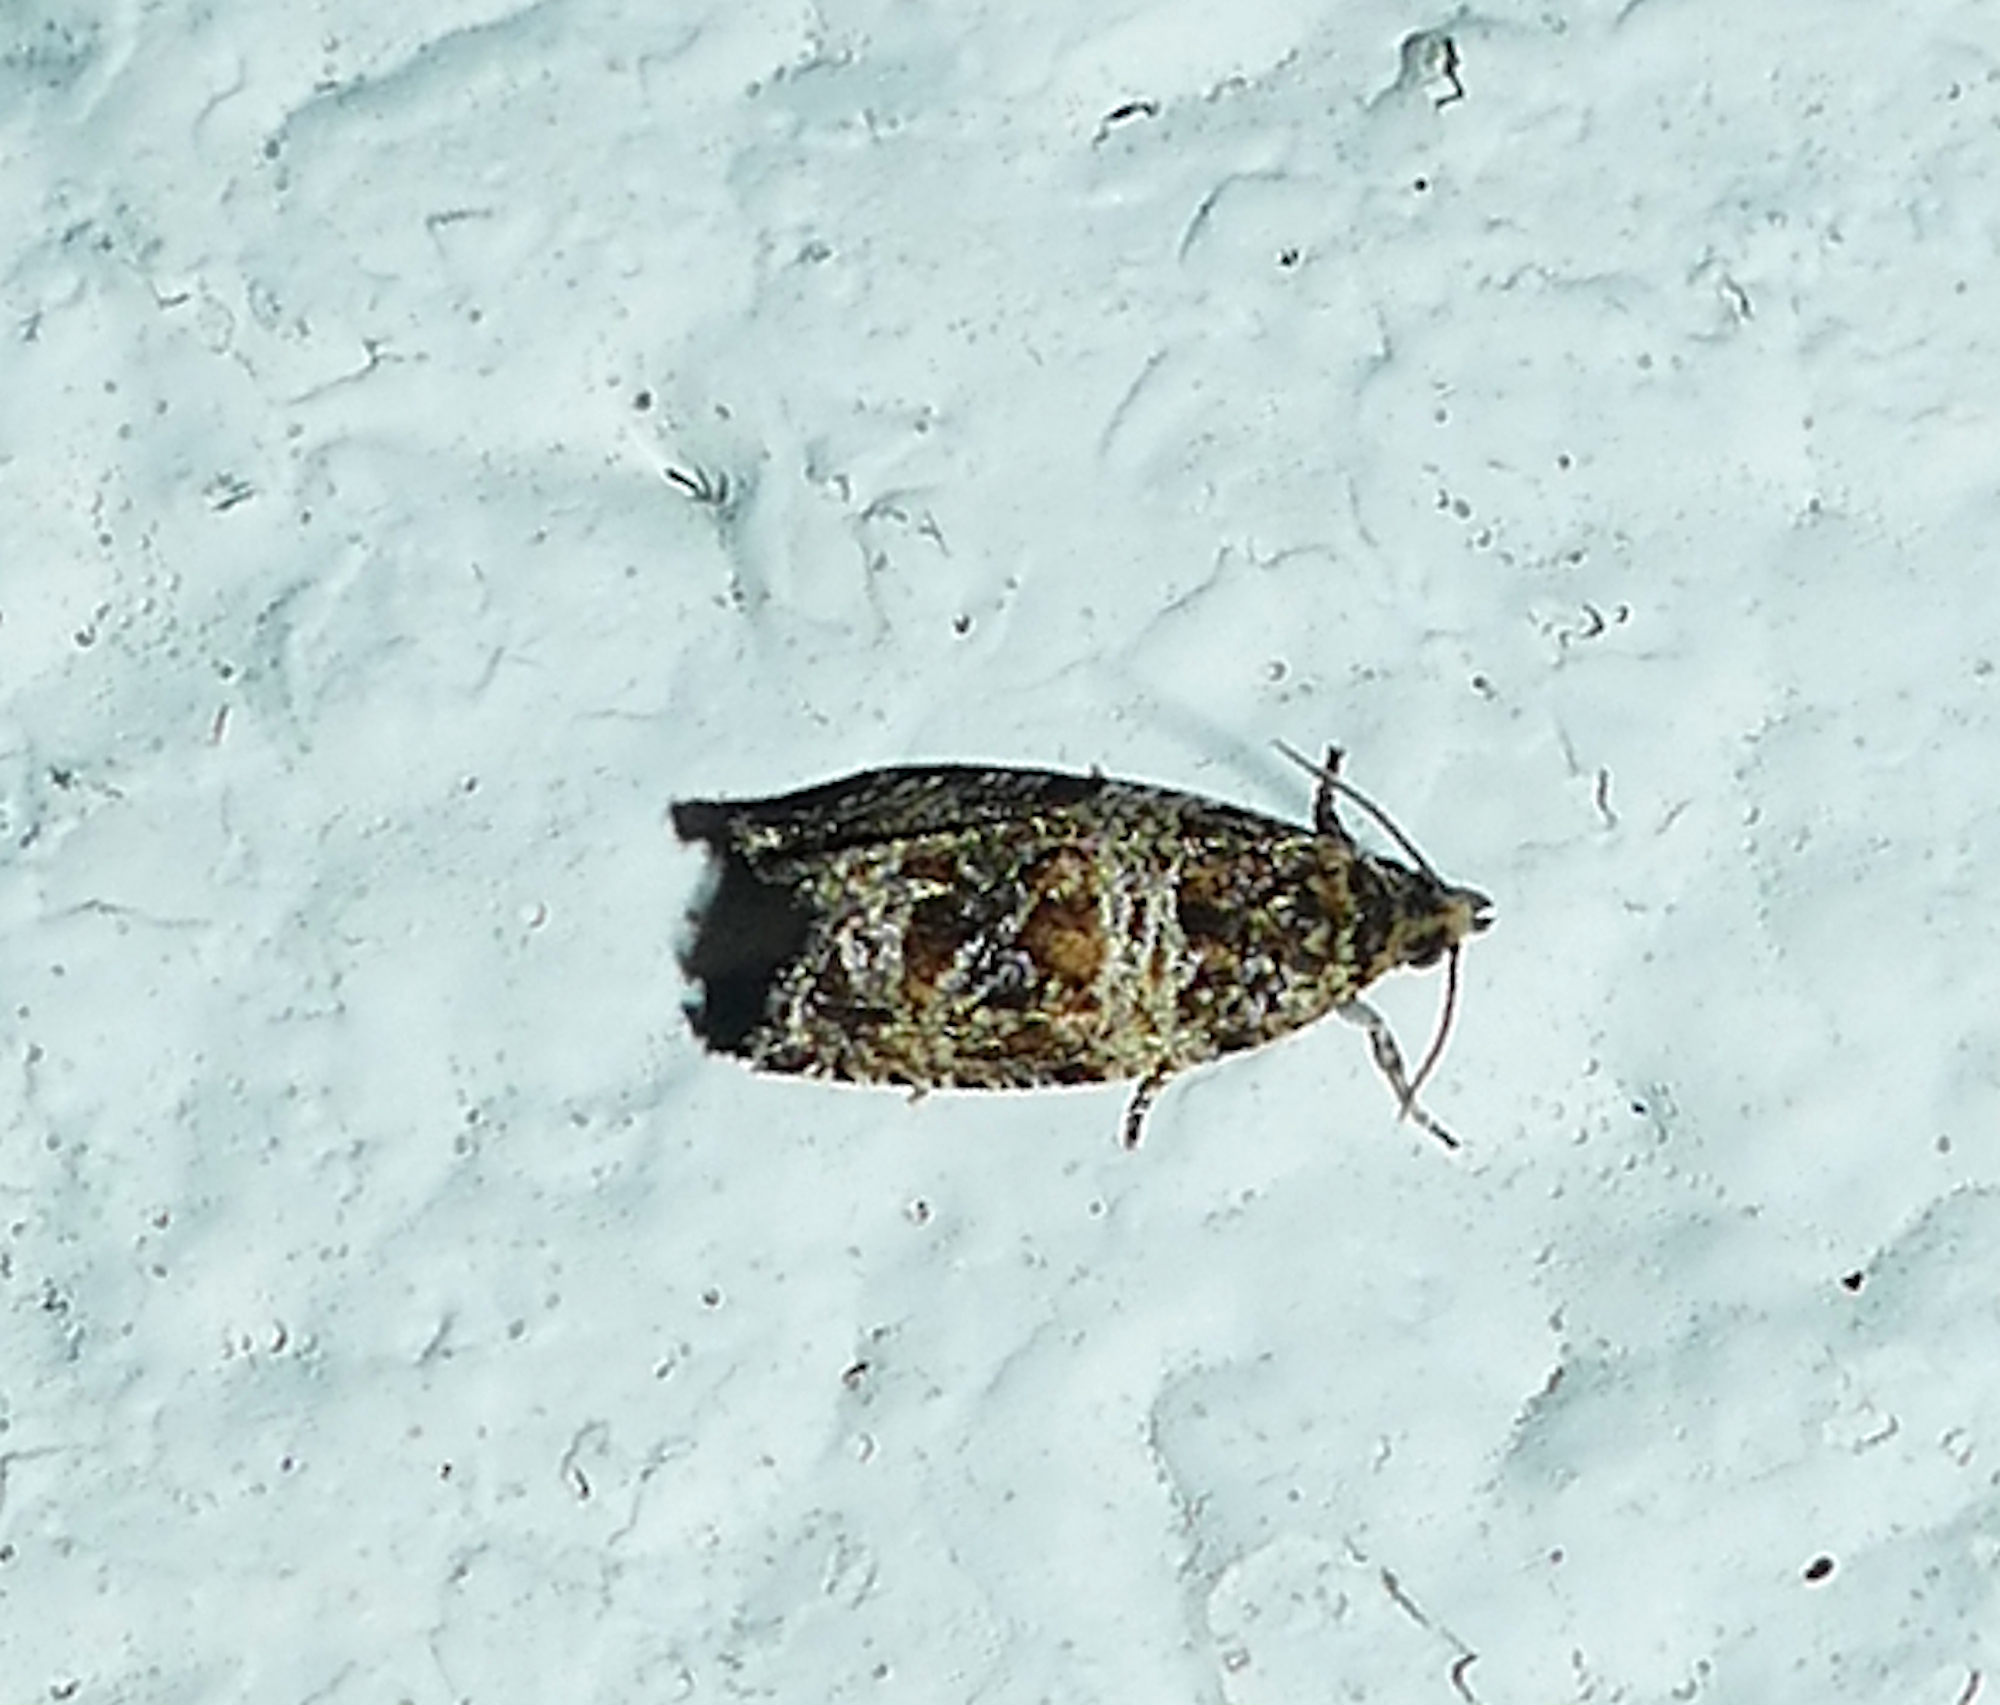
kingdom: Animalia
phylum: Arthropoda
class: Insecta
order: Lepidoptera
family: Tortricidae
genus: Celypha
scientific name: Celypha cespitana
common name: Thyme marble
